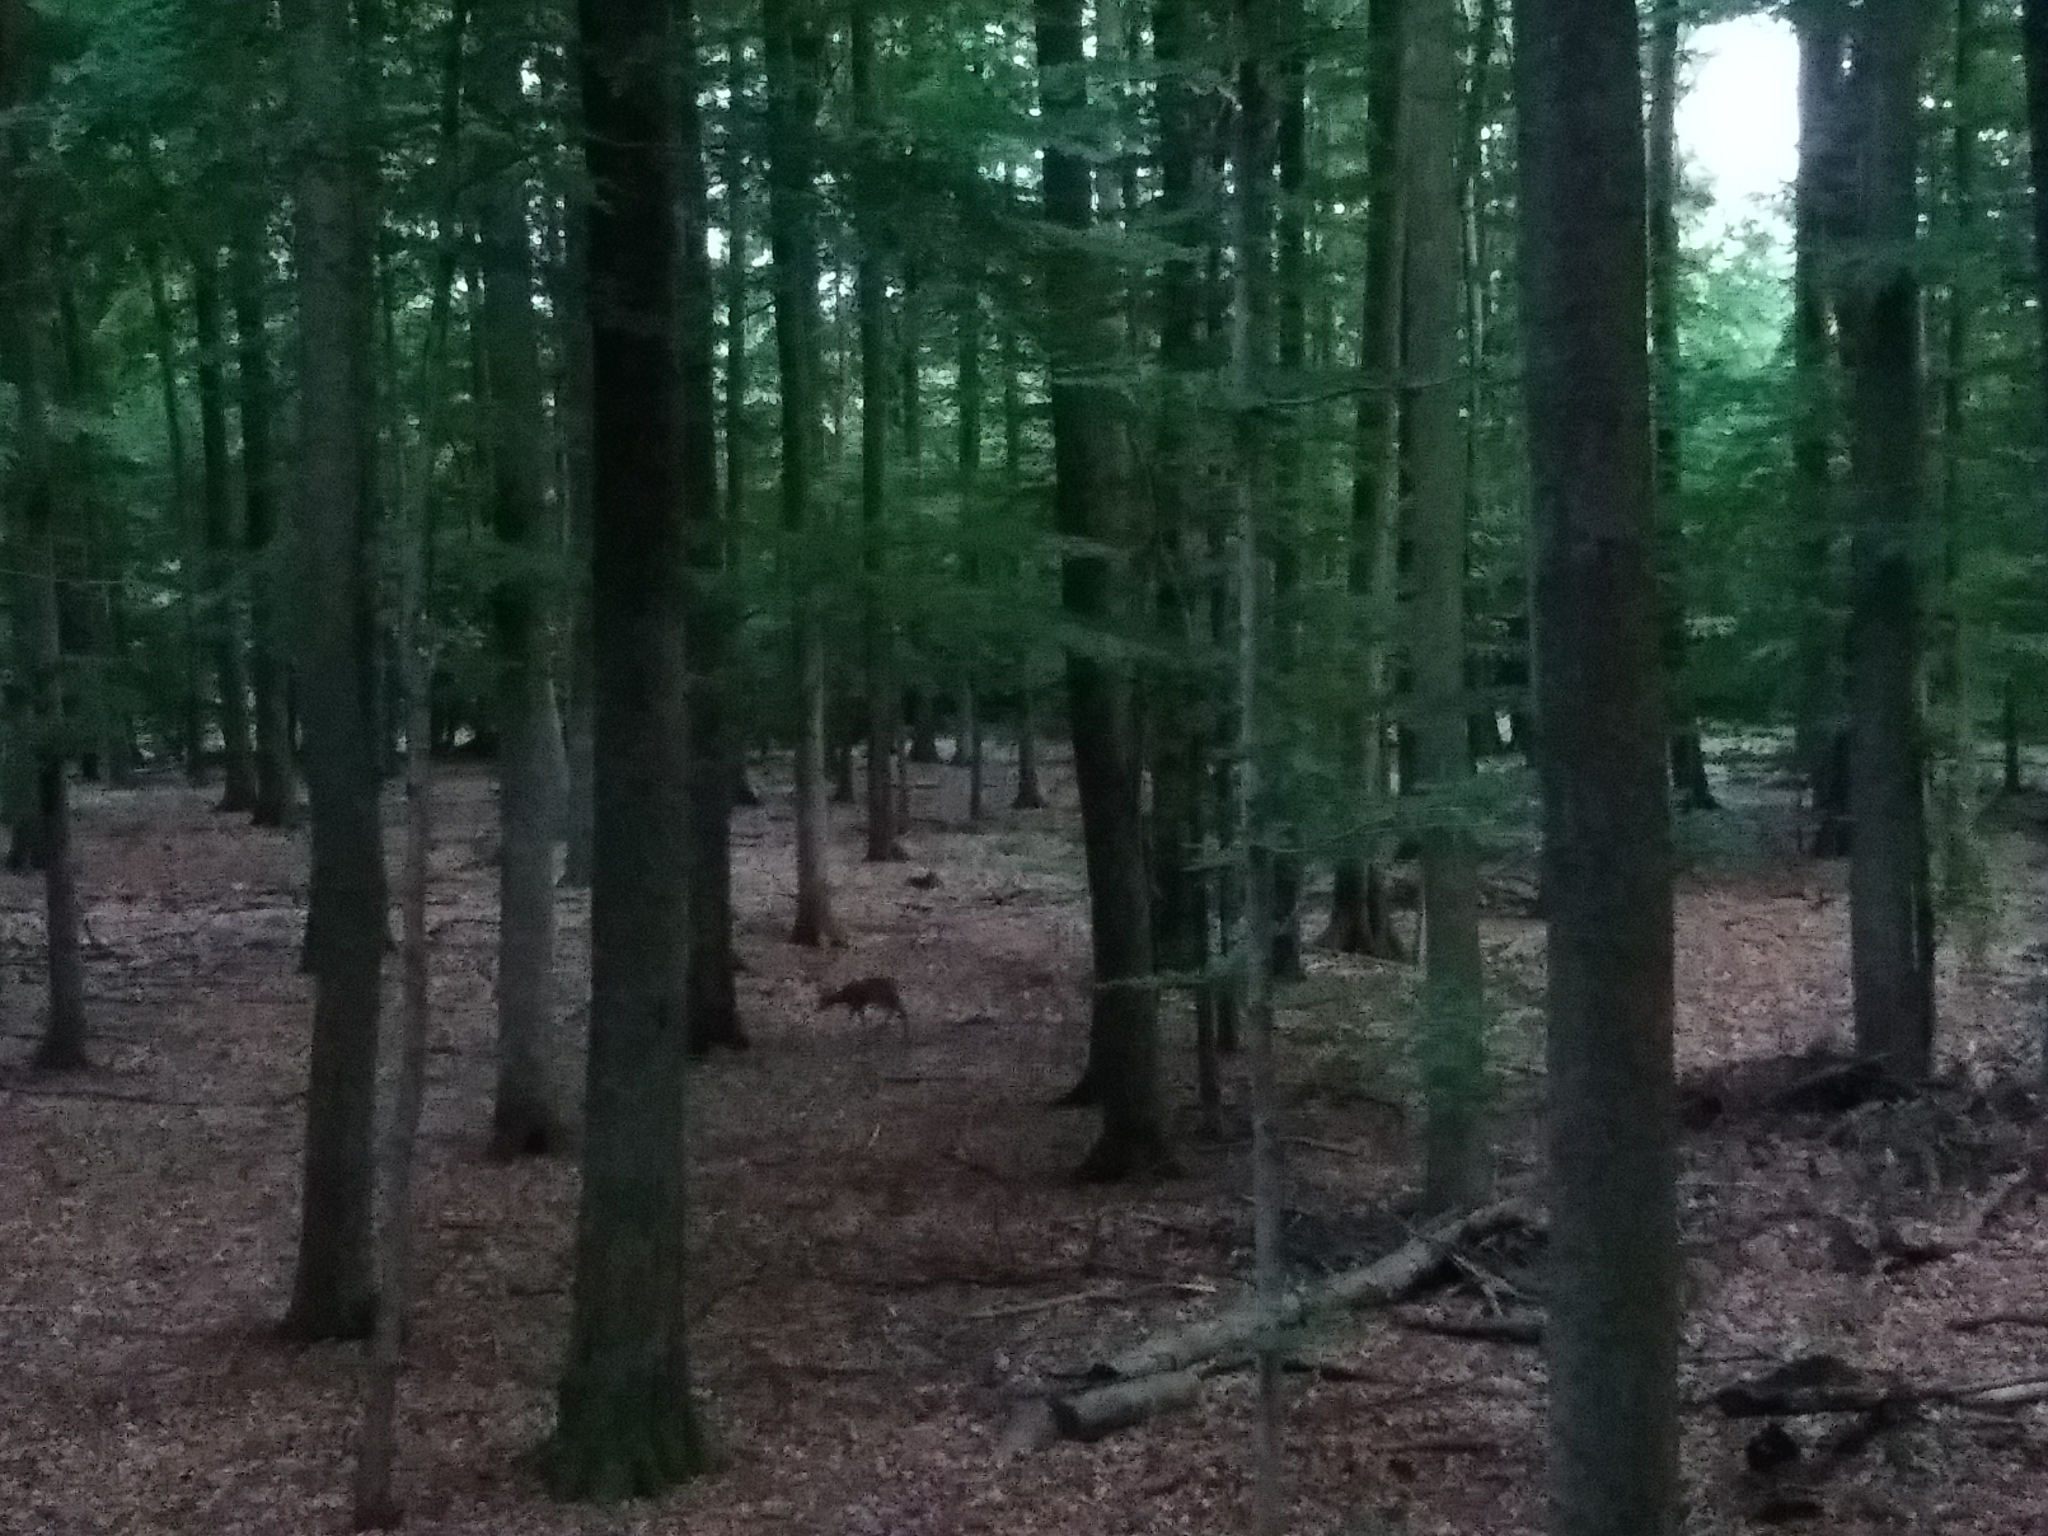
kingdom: Animalia
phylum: Chordata
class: Mammalia
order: Artiodactyla
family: Cervidae
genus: Capreolus
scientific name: Capreolus capreolus
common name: Western roe deer
